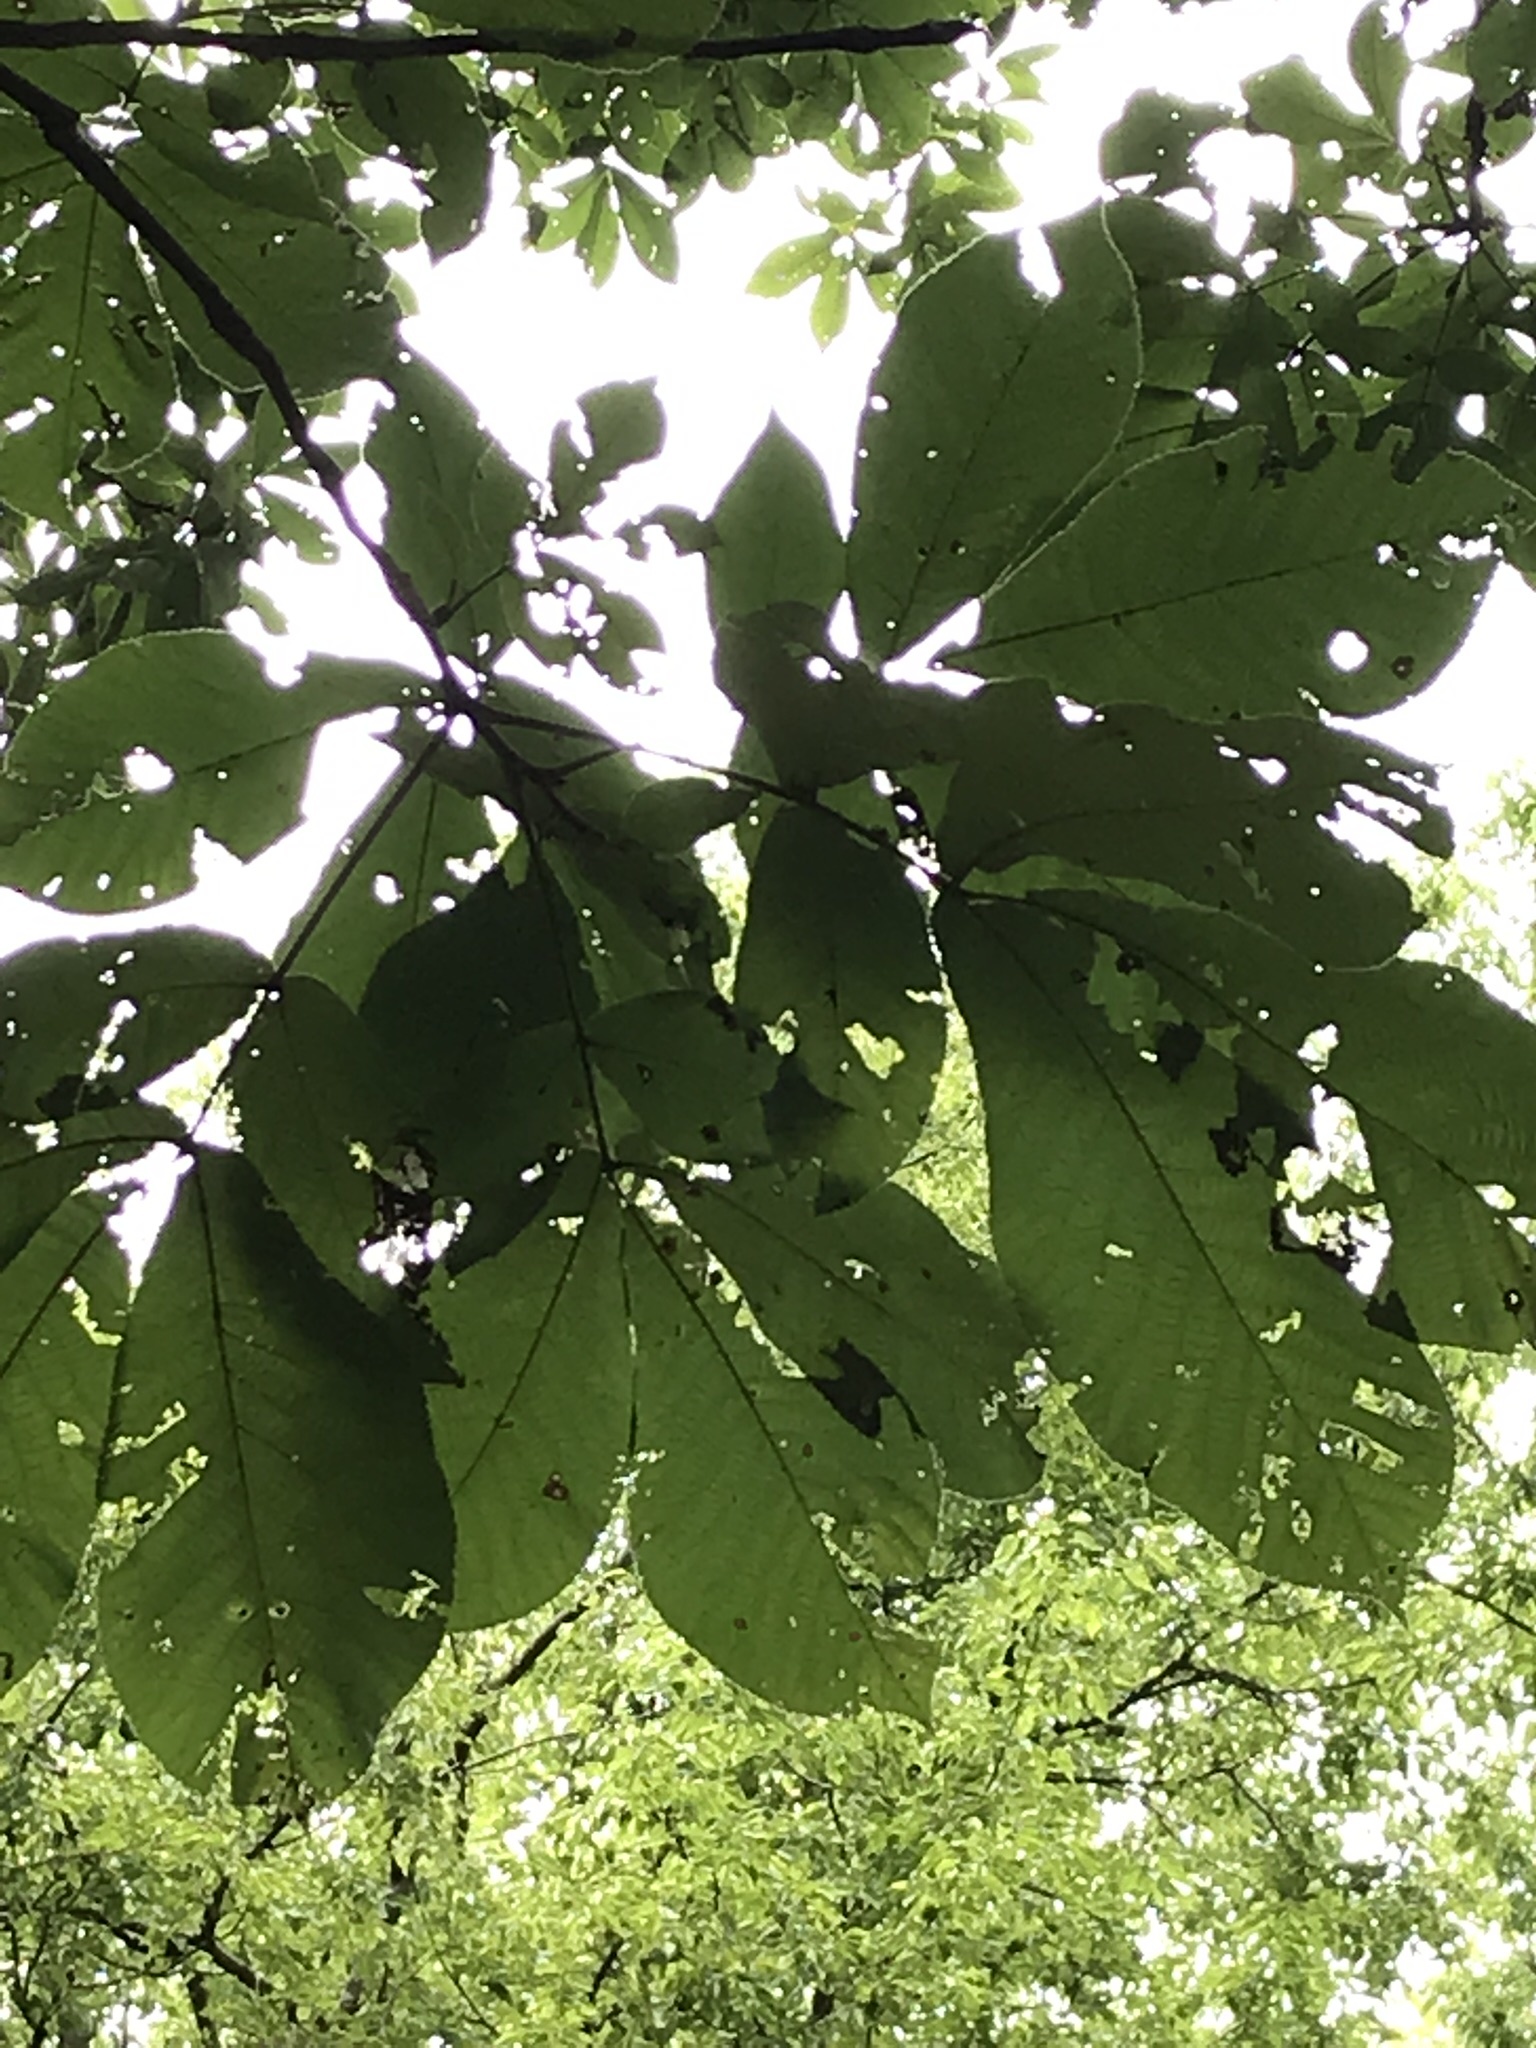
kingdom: Plantae
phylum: Tracheophyta
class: Magnoliopsida
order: Fagales
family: Juglandaceae
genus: Carya
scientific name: Carya ovata
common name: Shagbark hickory
